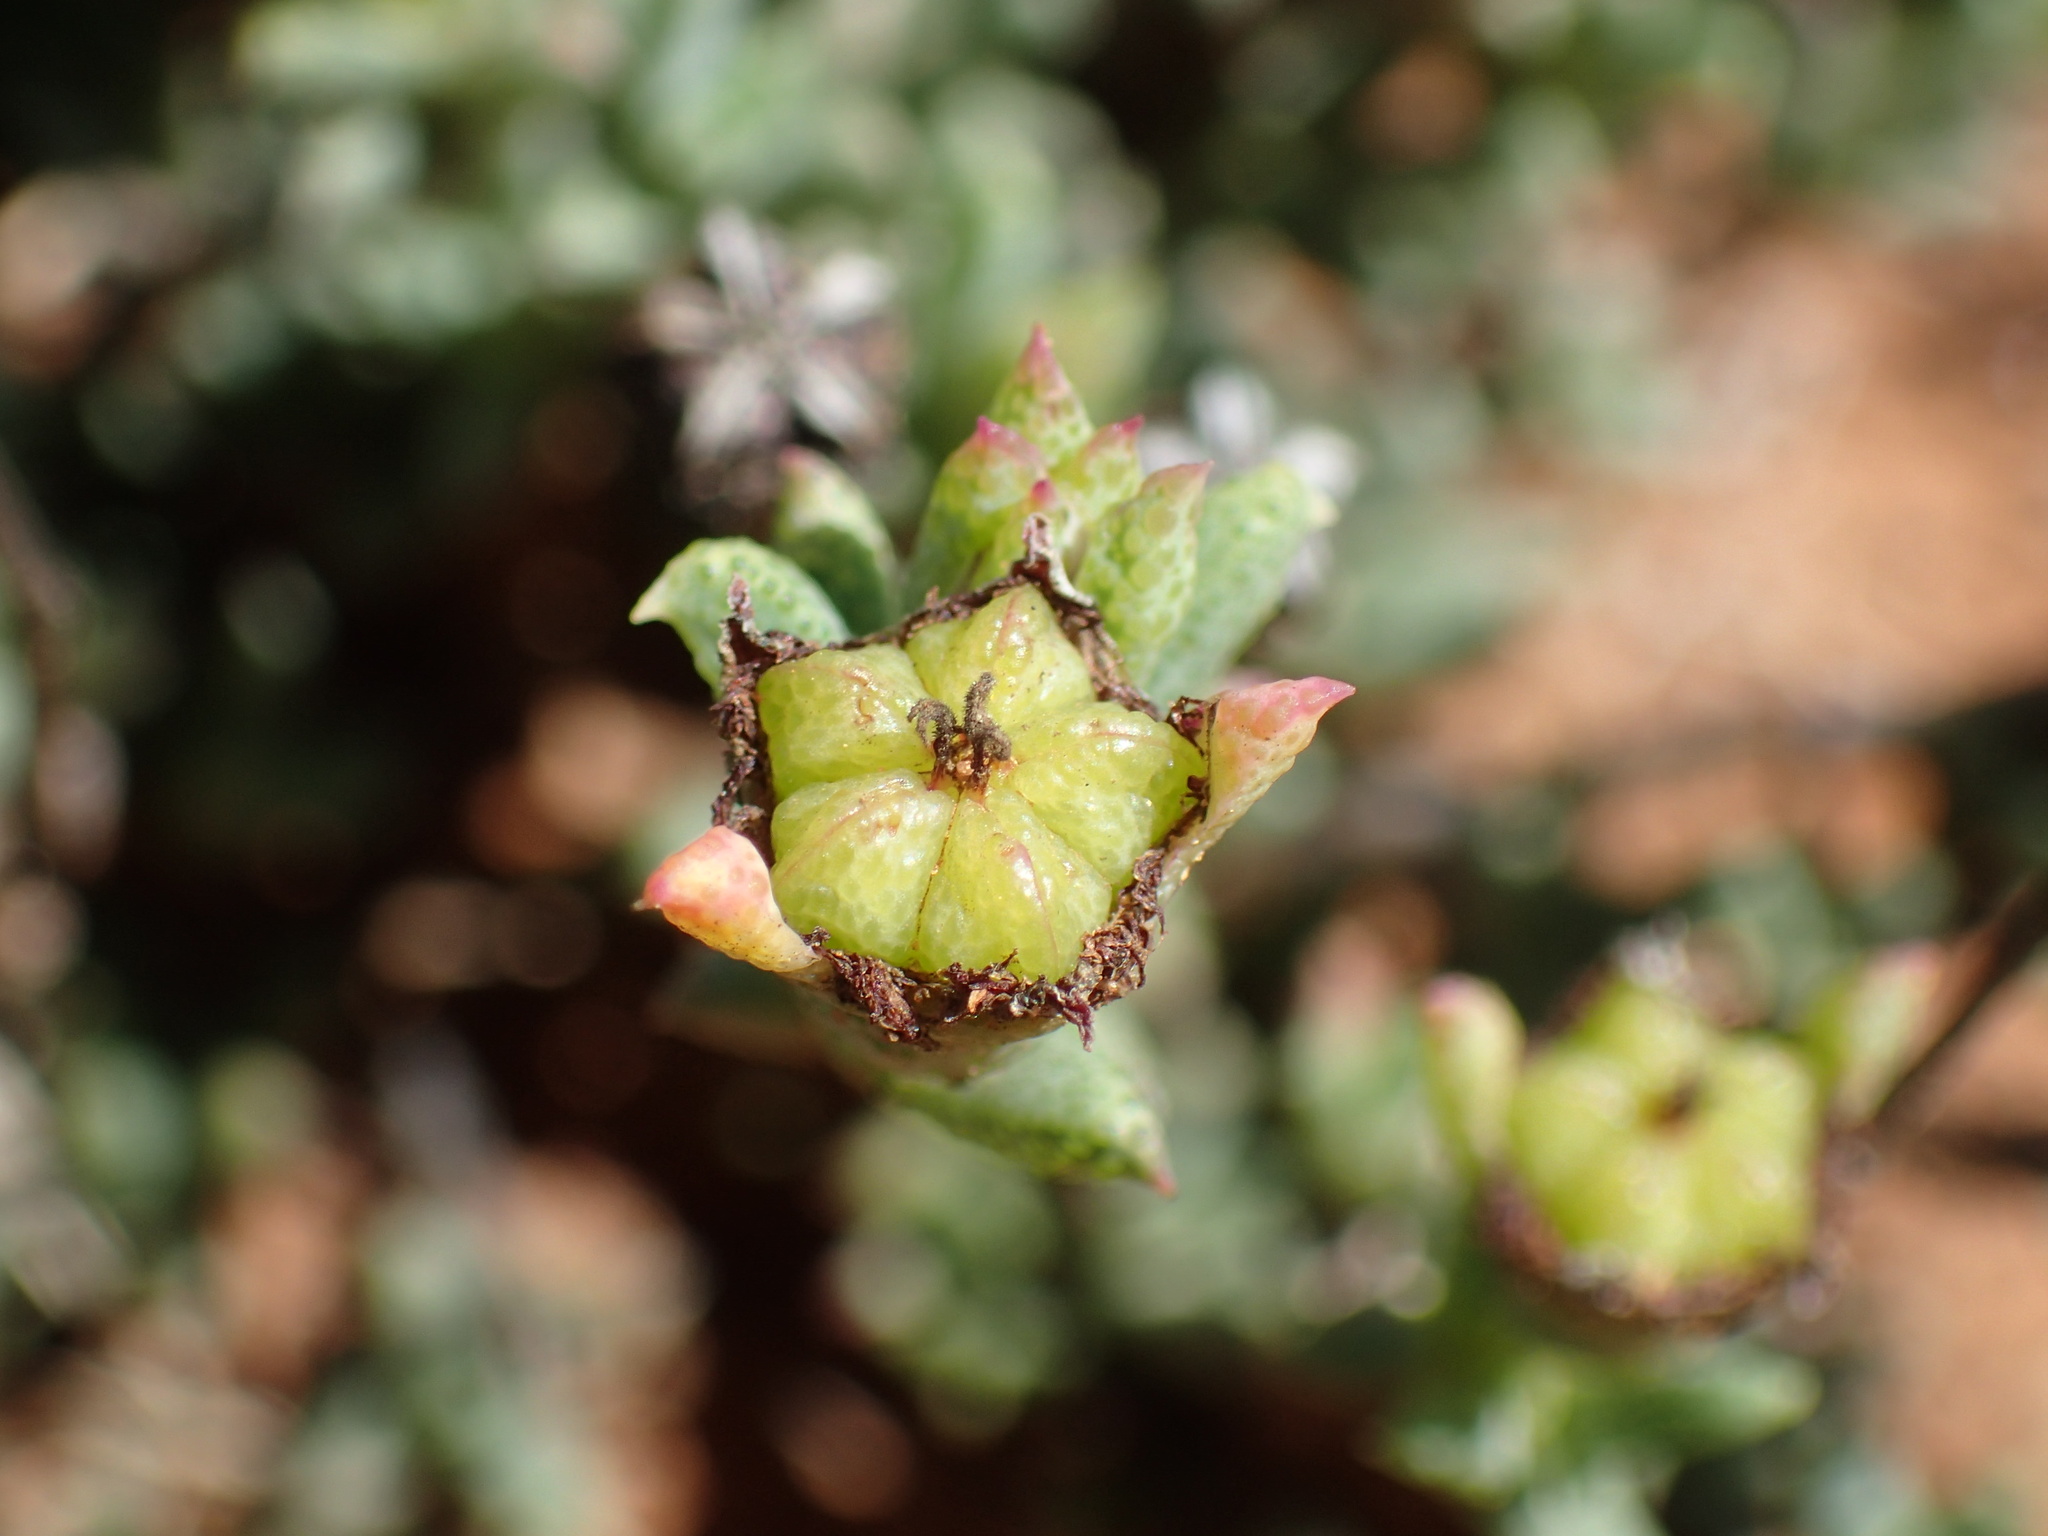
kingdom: Plantae
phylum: Tracheophyta
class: Magnoliopsida
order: Caryophyllales
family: Aizoaceae
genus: Ruschia
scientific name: Ruschia hamata
